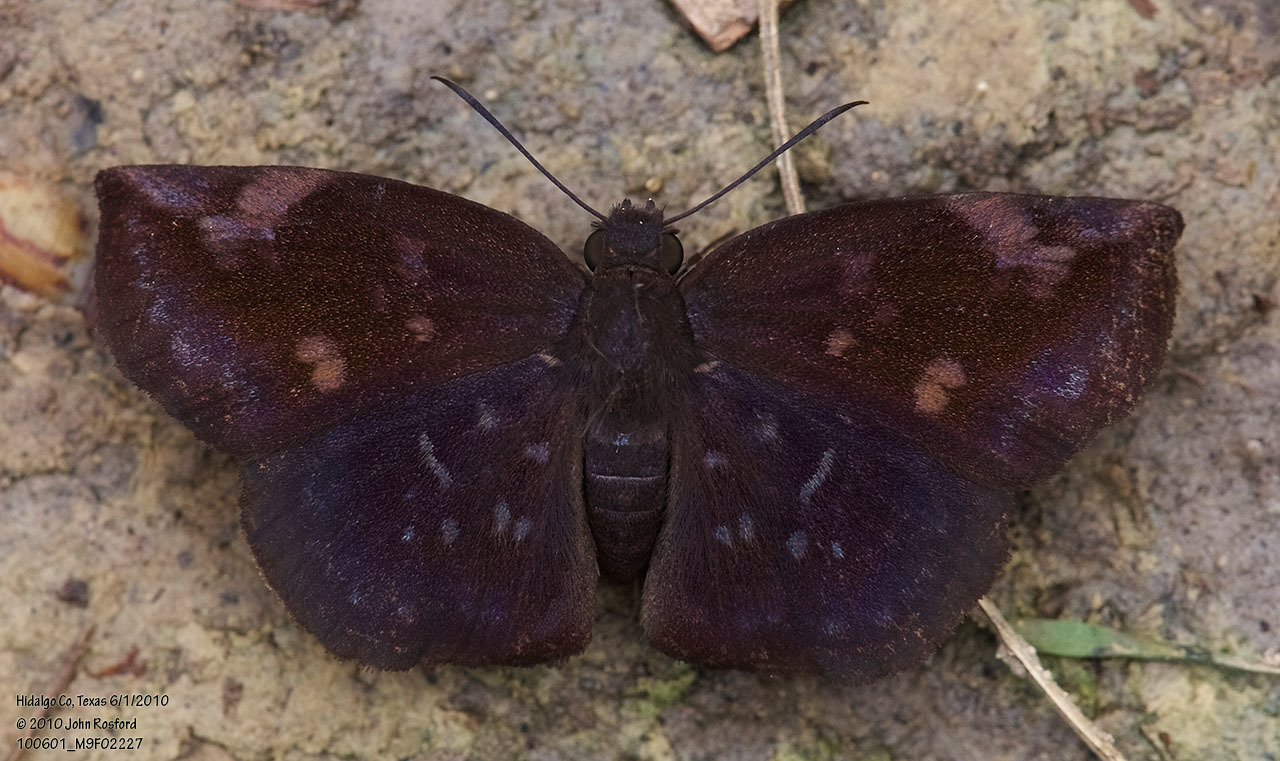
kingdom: Animalia
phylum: Arthropoda
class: Insecta
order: Lepidoptera
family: Hesperiidae
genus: Achlyodes
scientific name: Achlyodes thraso
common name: Sickle-winged skipper
